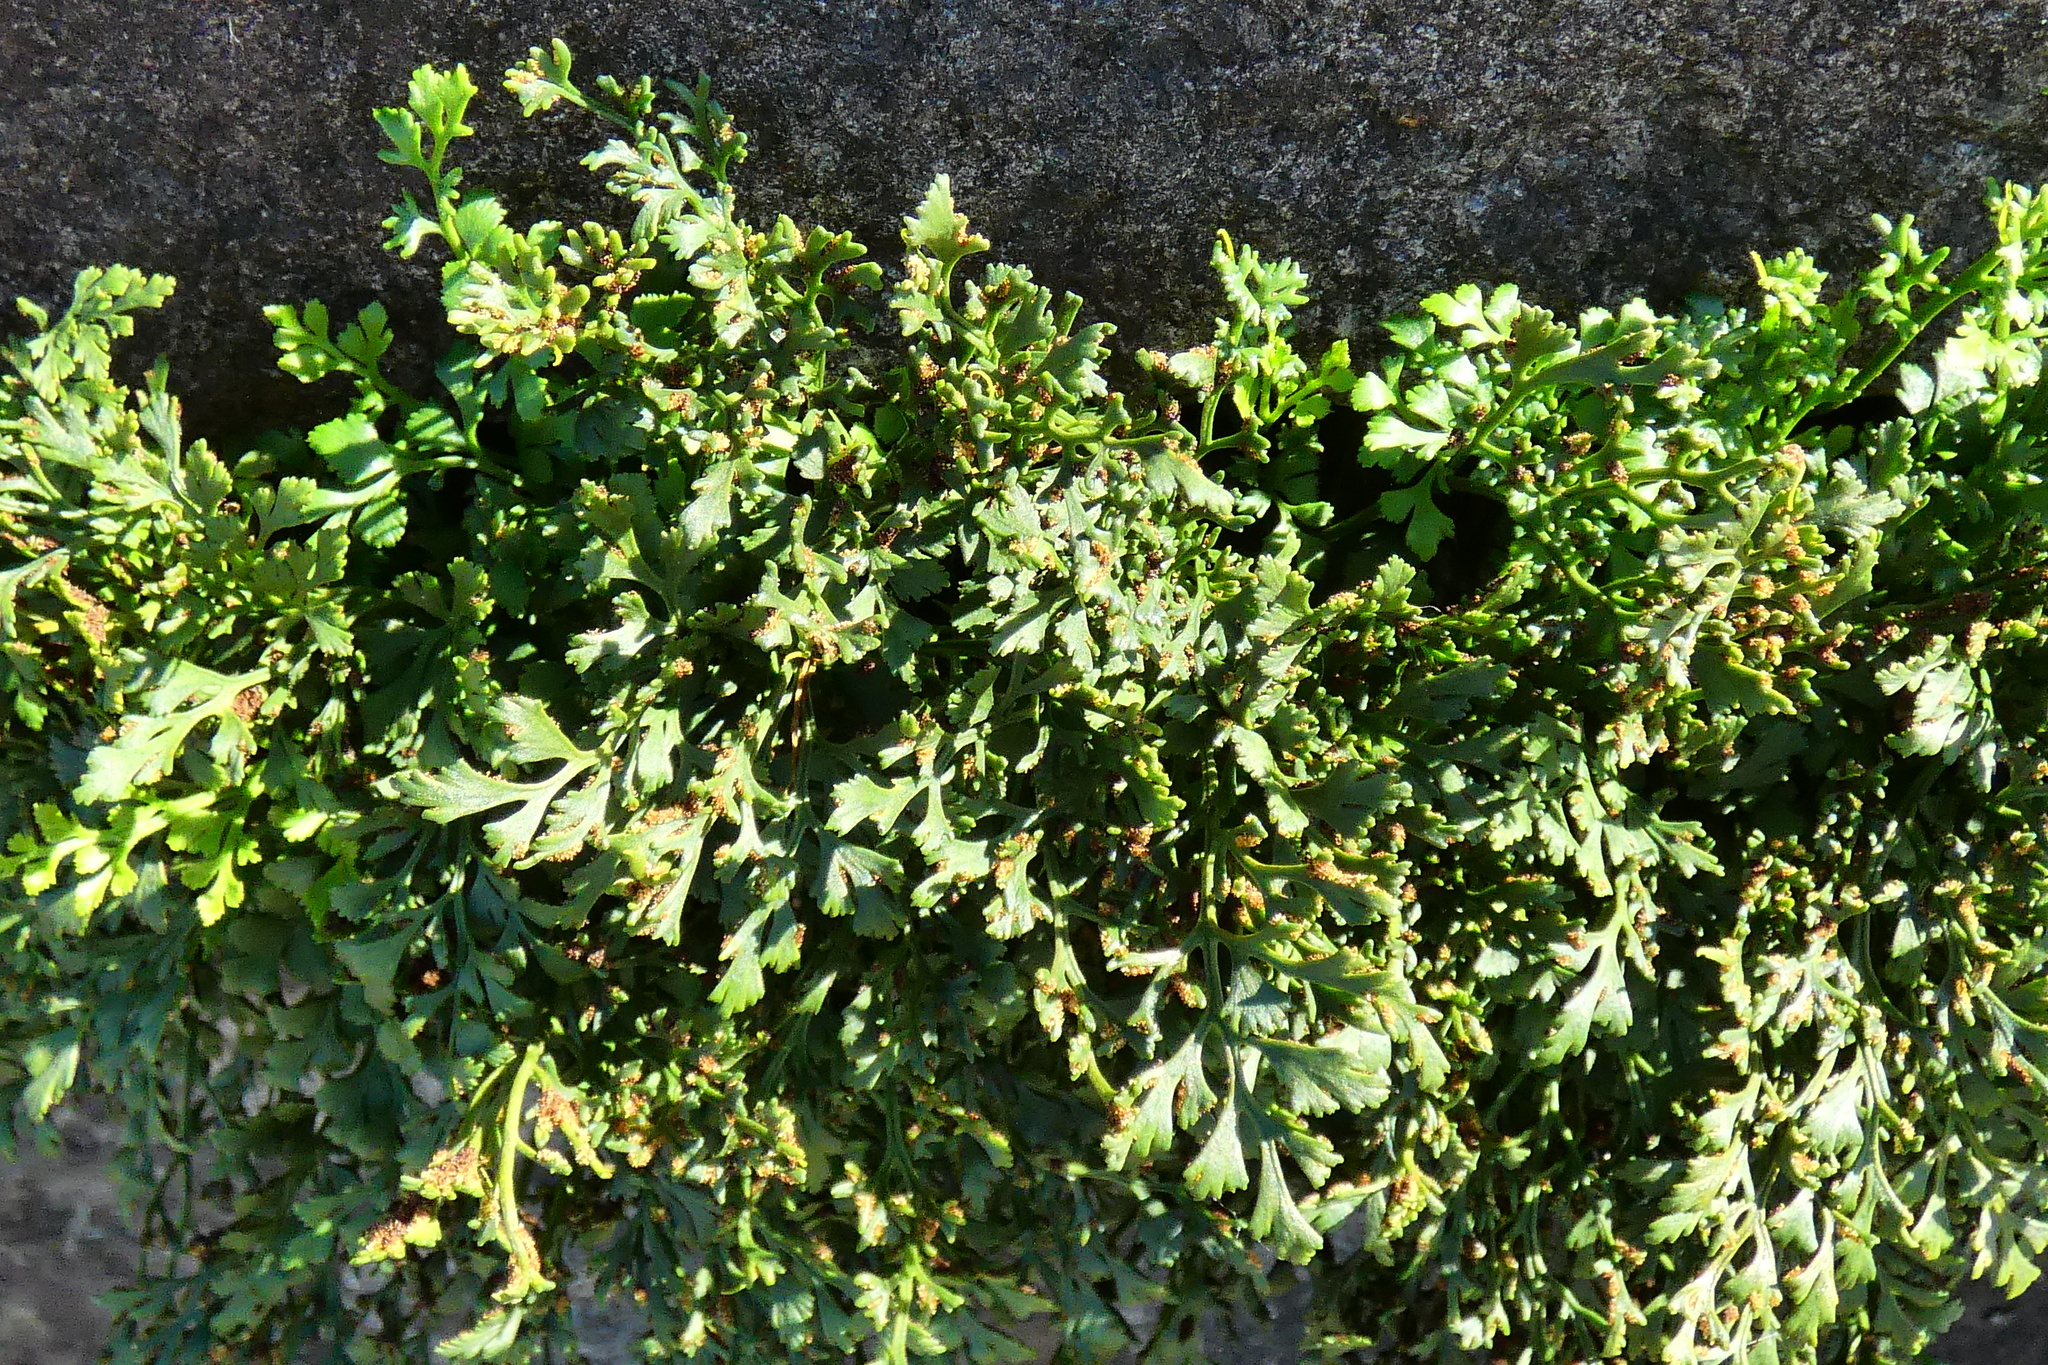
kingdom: Plantae
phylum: Tracheophyta
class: Polypodiopsida
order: Polypodiales
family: Aspleniaceae
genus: Asplenium
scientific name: Asplenium ruta-muraria
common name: Wall-rue
